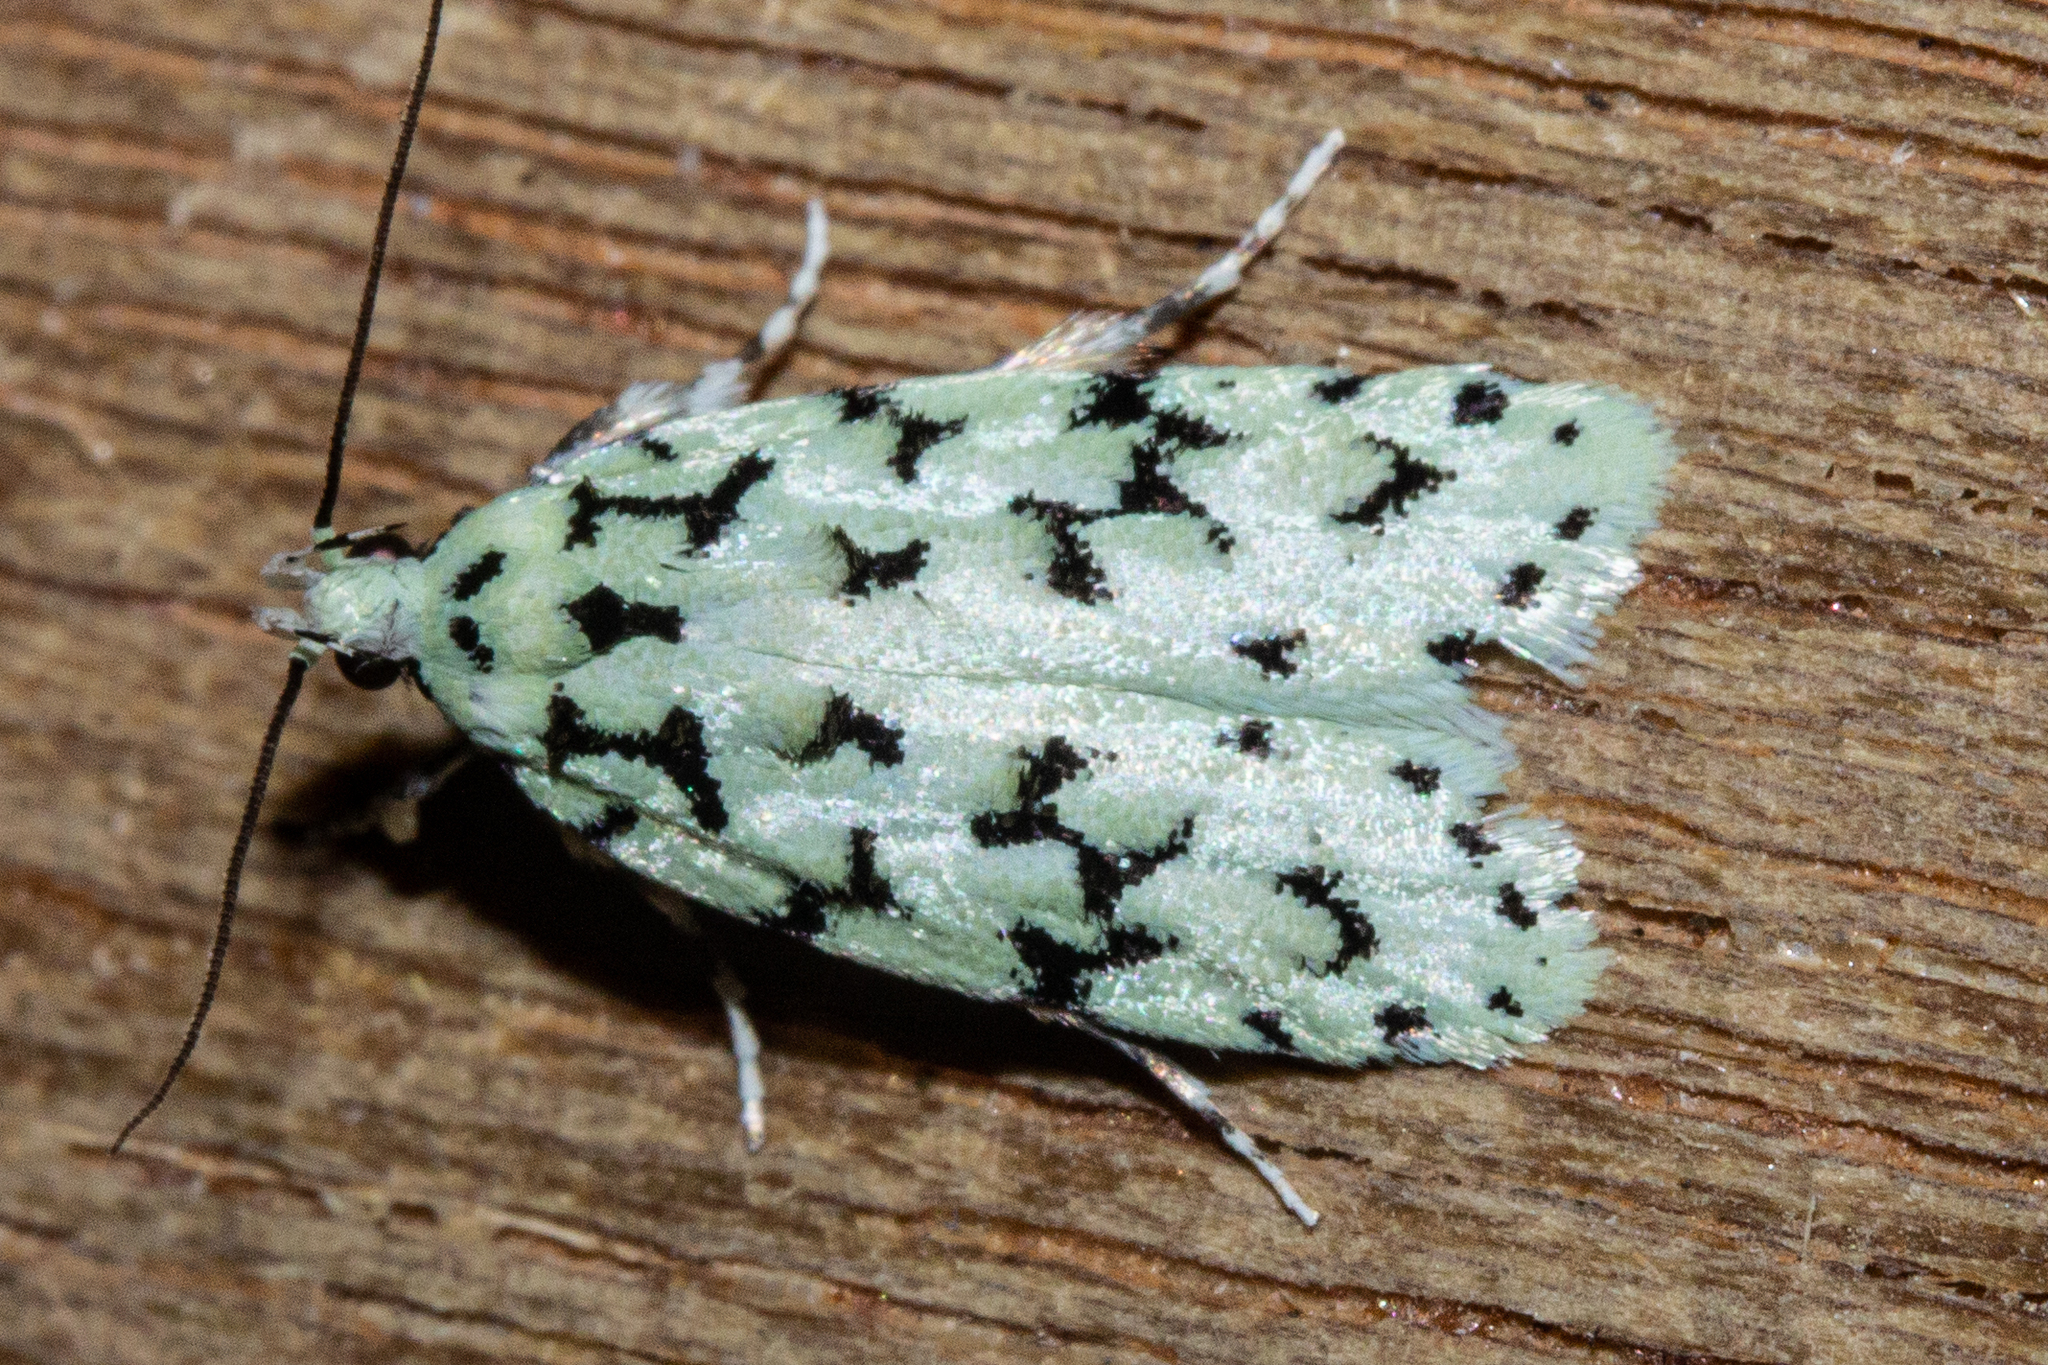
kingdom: Animalia
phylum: Arthropoda
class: Insecta
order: Lepidoptera
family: Oecophoridae
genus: Izatha
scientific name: Izatha huttoni
